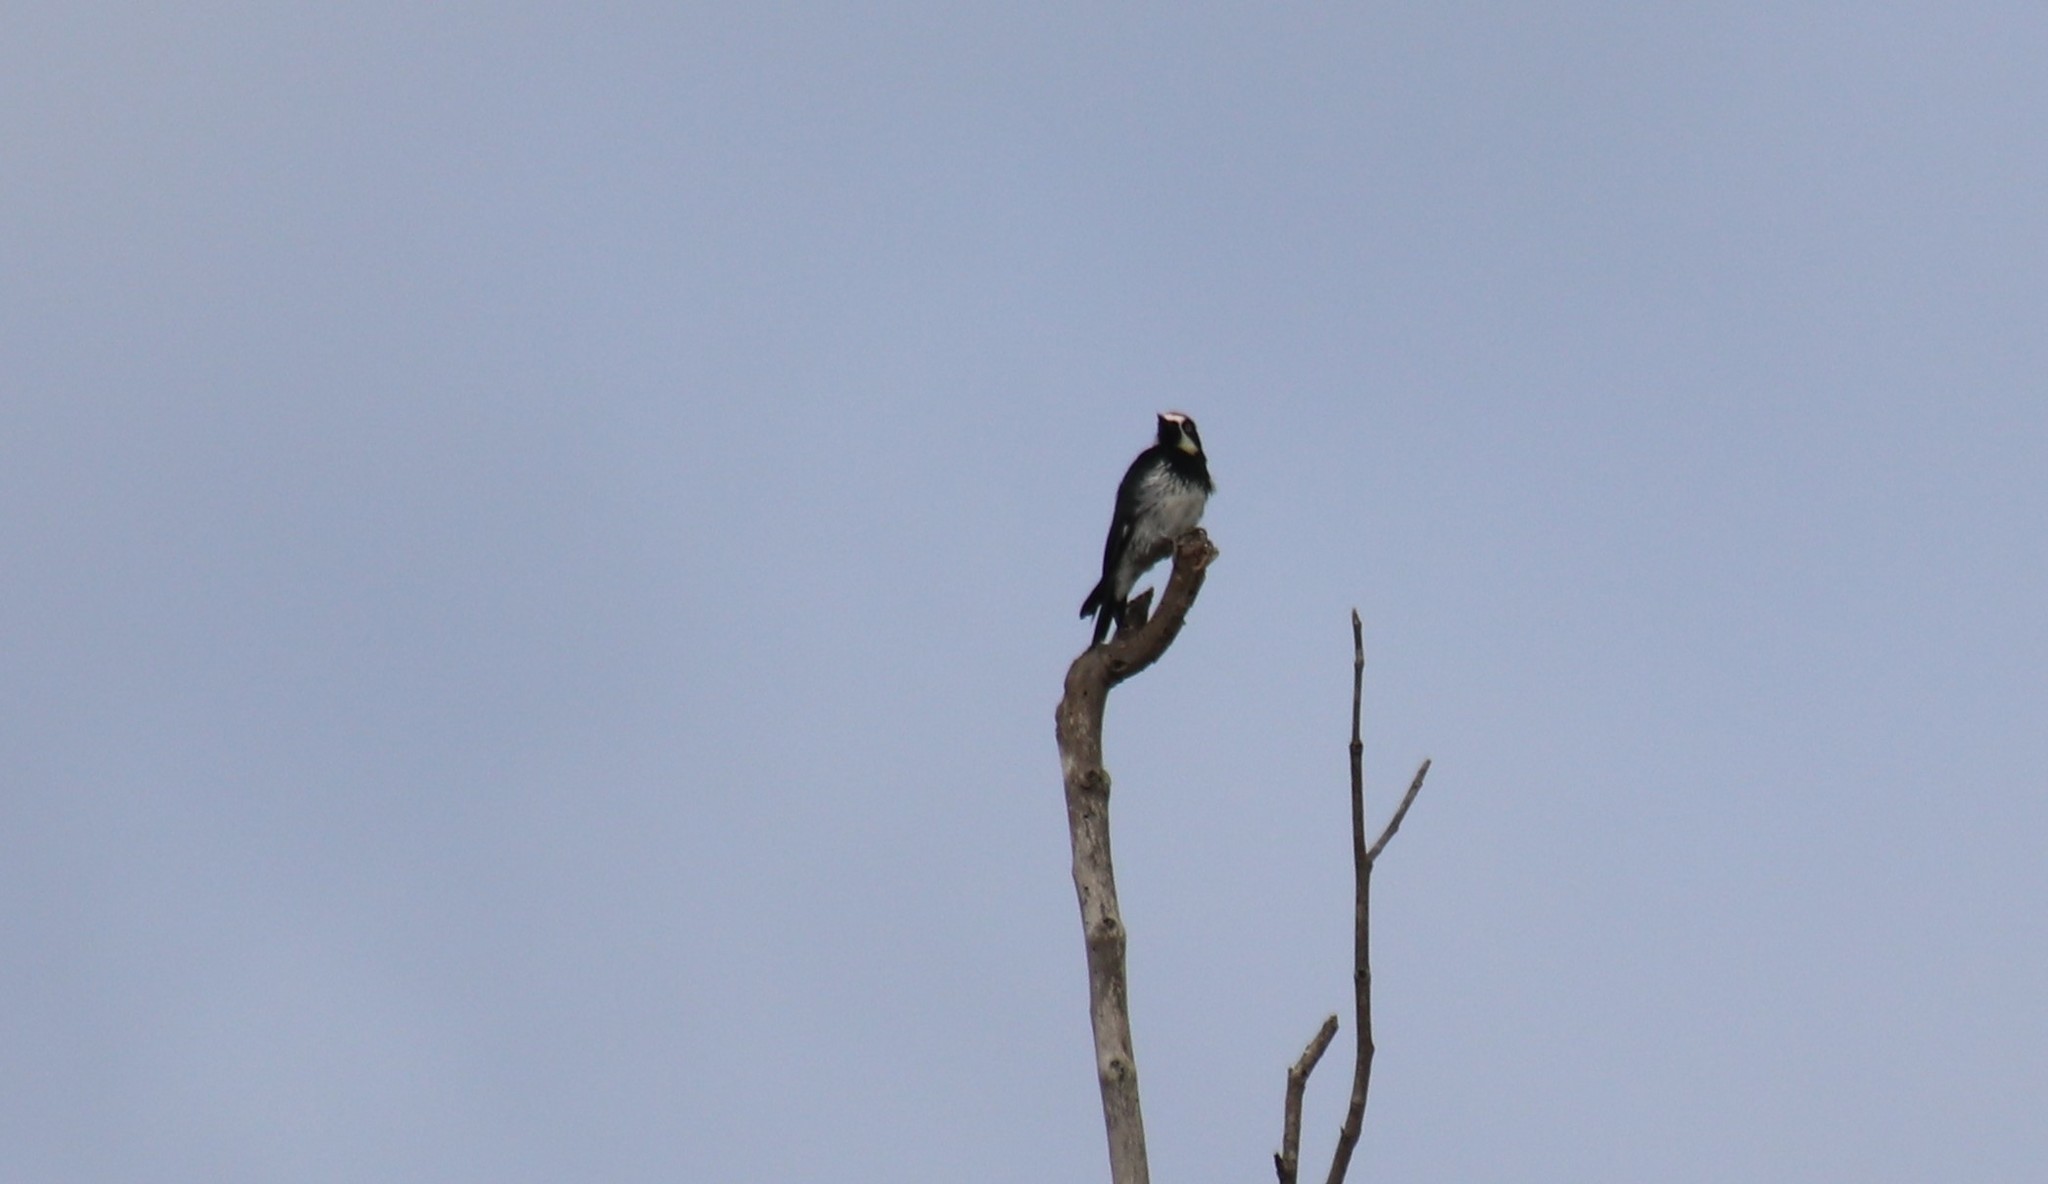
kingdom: Animalia
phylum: Chordata
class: Aves
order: Piciformes
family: Picidae
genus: Melanerpes
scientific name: Melanerpes formicivorus
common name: Acorn woodpecker
